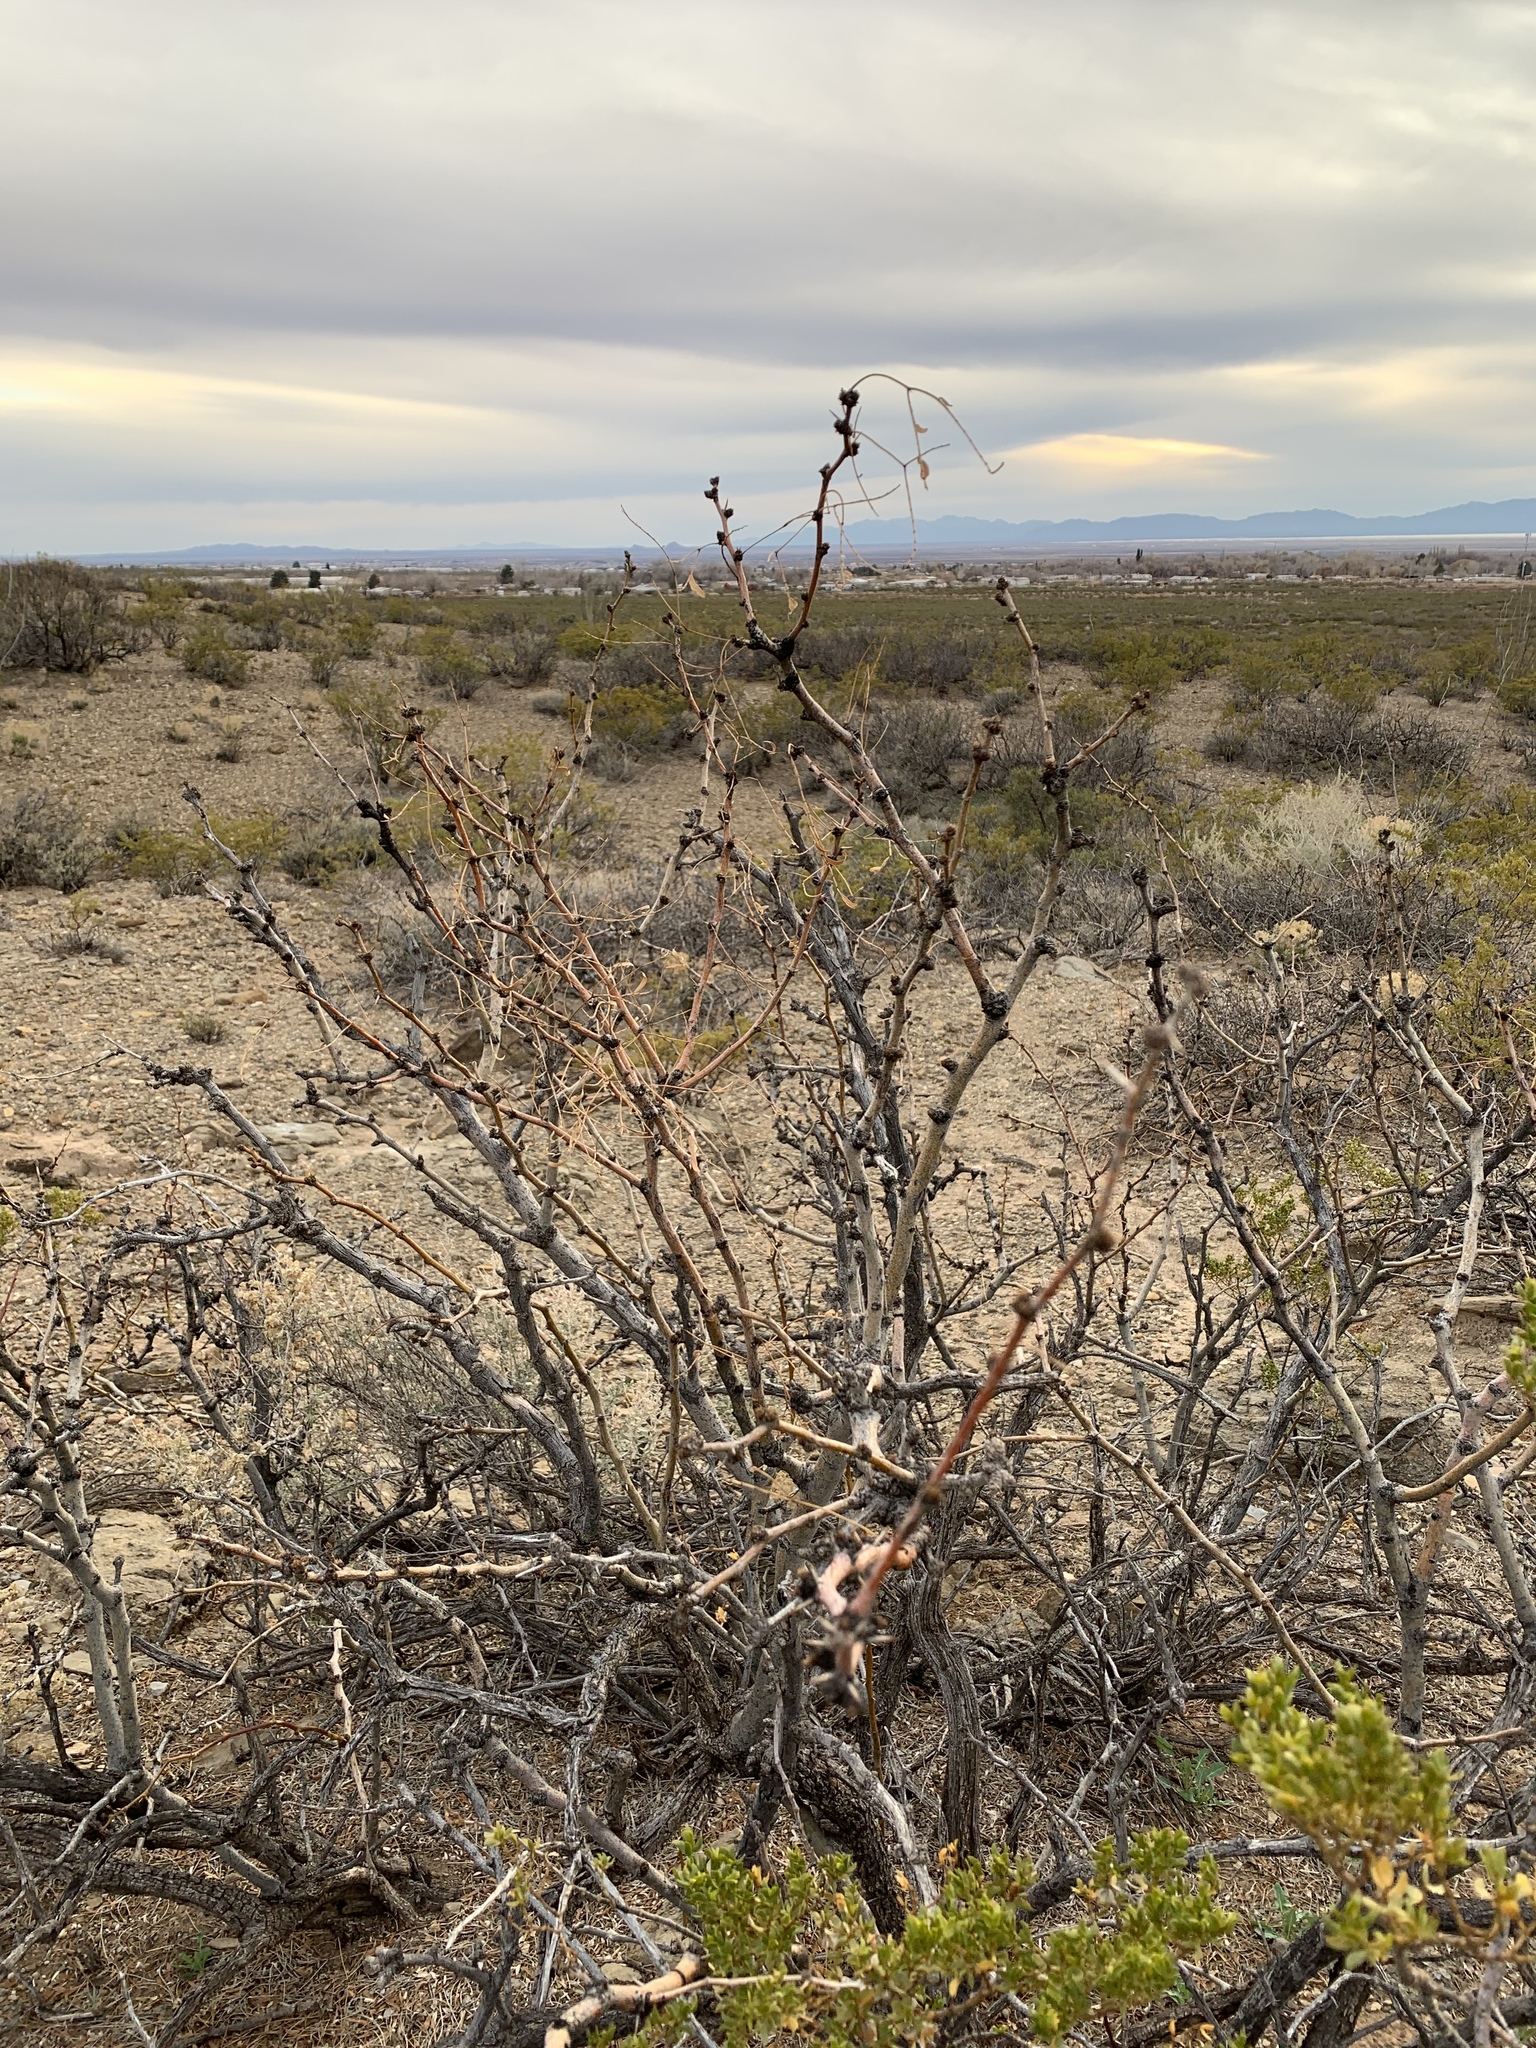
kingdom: Plantae
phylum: Tracheophyta
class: Magnoliopsida
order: Fabales
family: Fabaceae
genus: Prosopis
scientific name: Prosopis glandulosa
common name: Honey mesquite
